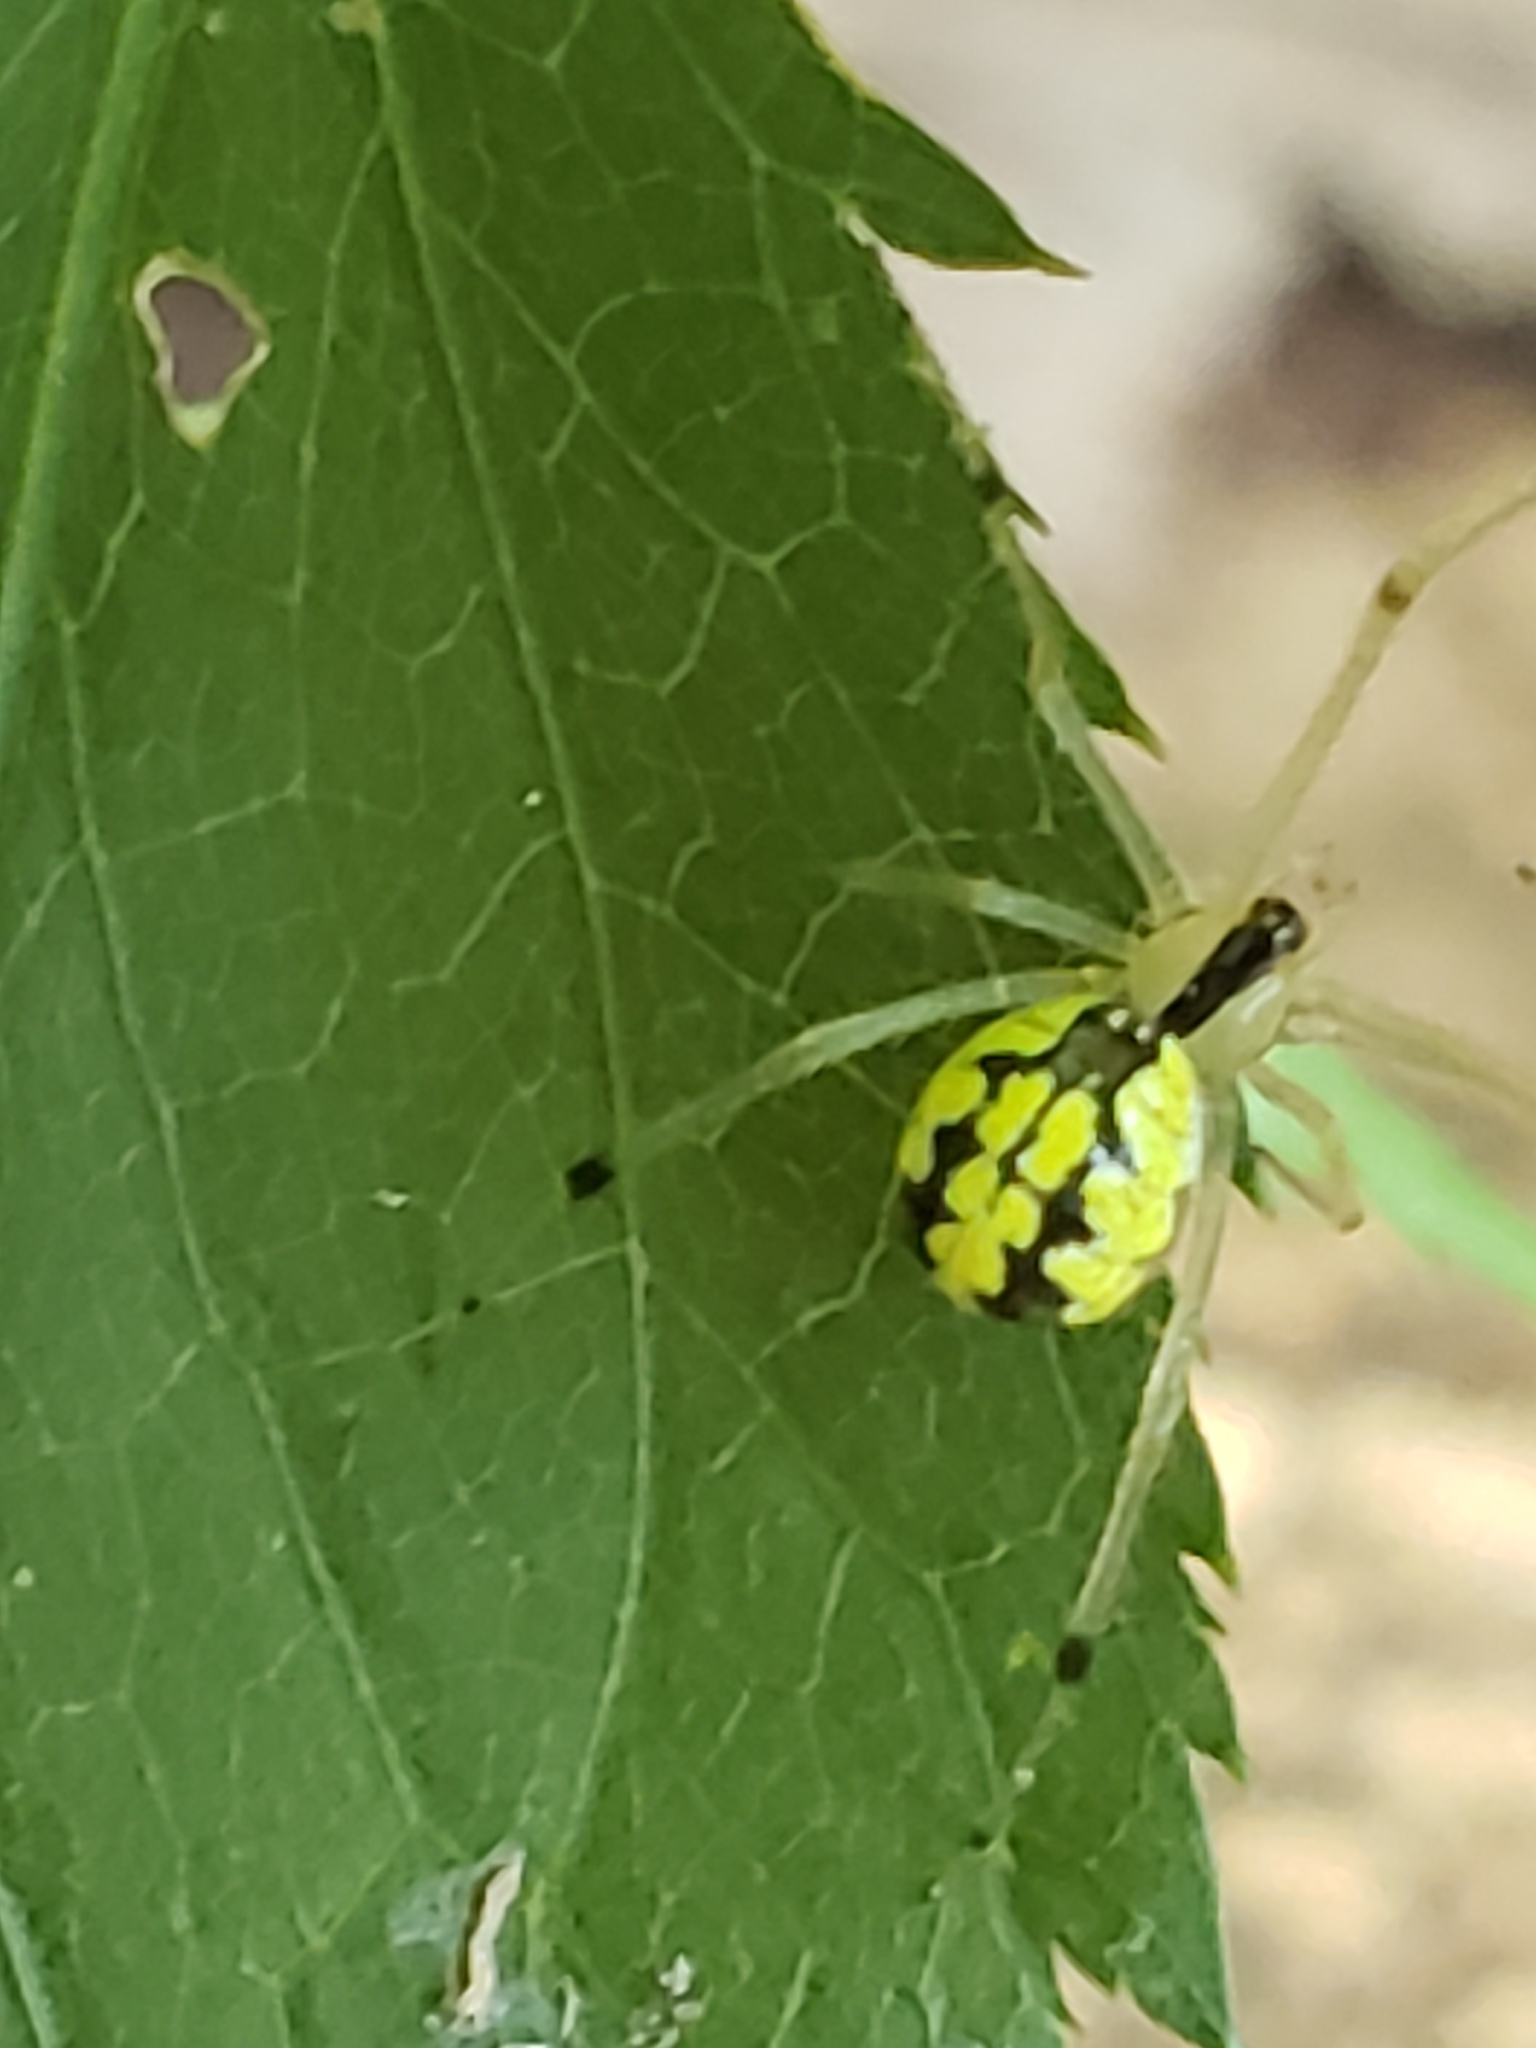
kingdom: Animalia
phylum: Arthropoda
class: Arachnida
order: Araneae
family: Theridiidae
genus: Phylloneta
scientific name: Phylloneta pictipes
